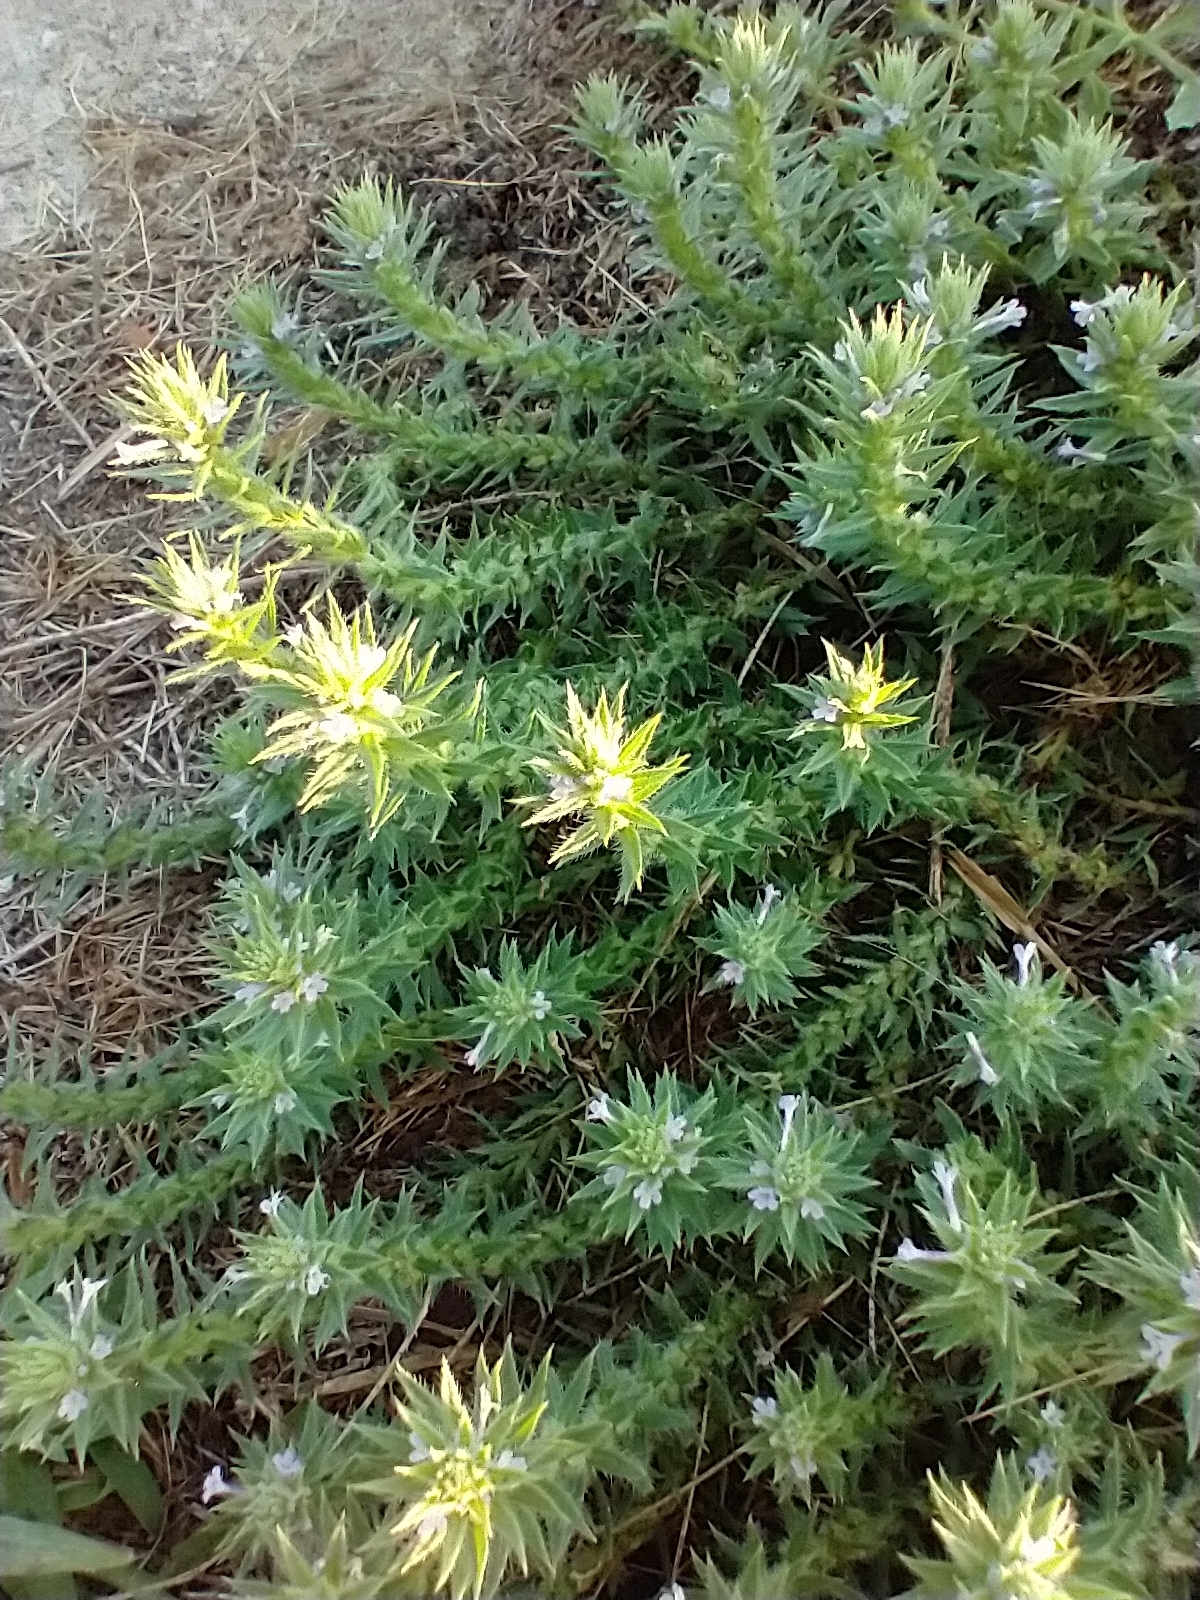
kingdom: Plantae
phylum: Tracheophyta
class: Magnoliopsida
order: Lamiales
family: Verbenaceae
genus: Verbena
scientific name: Verbena bracteata
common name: Bracted vervain
